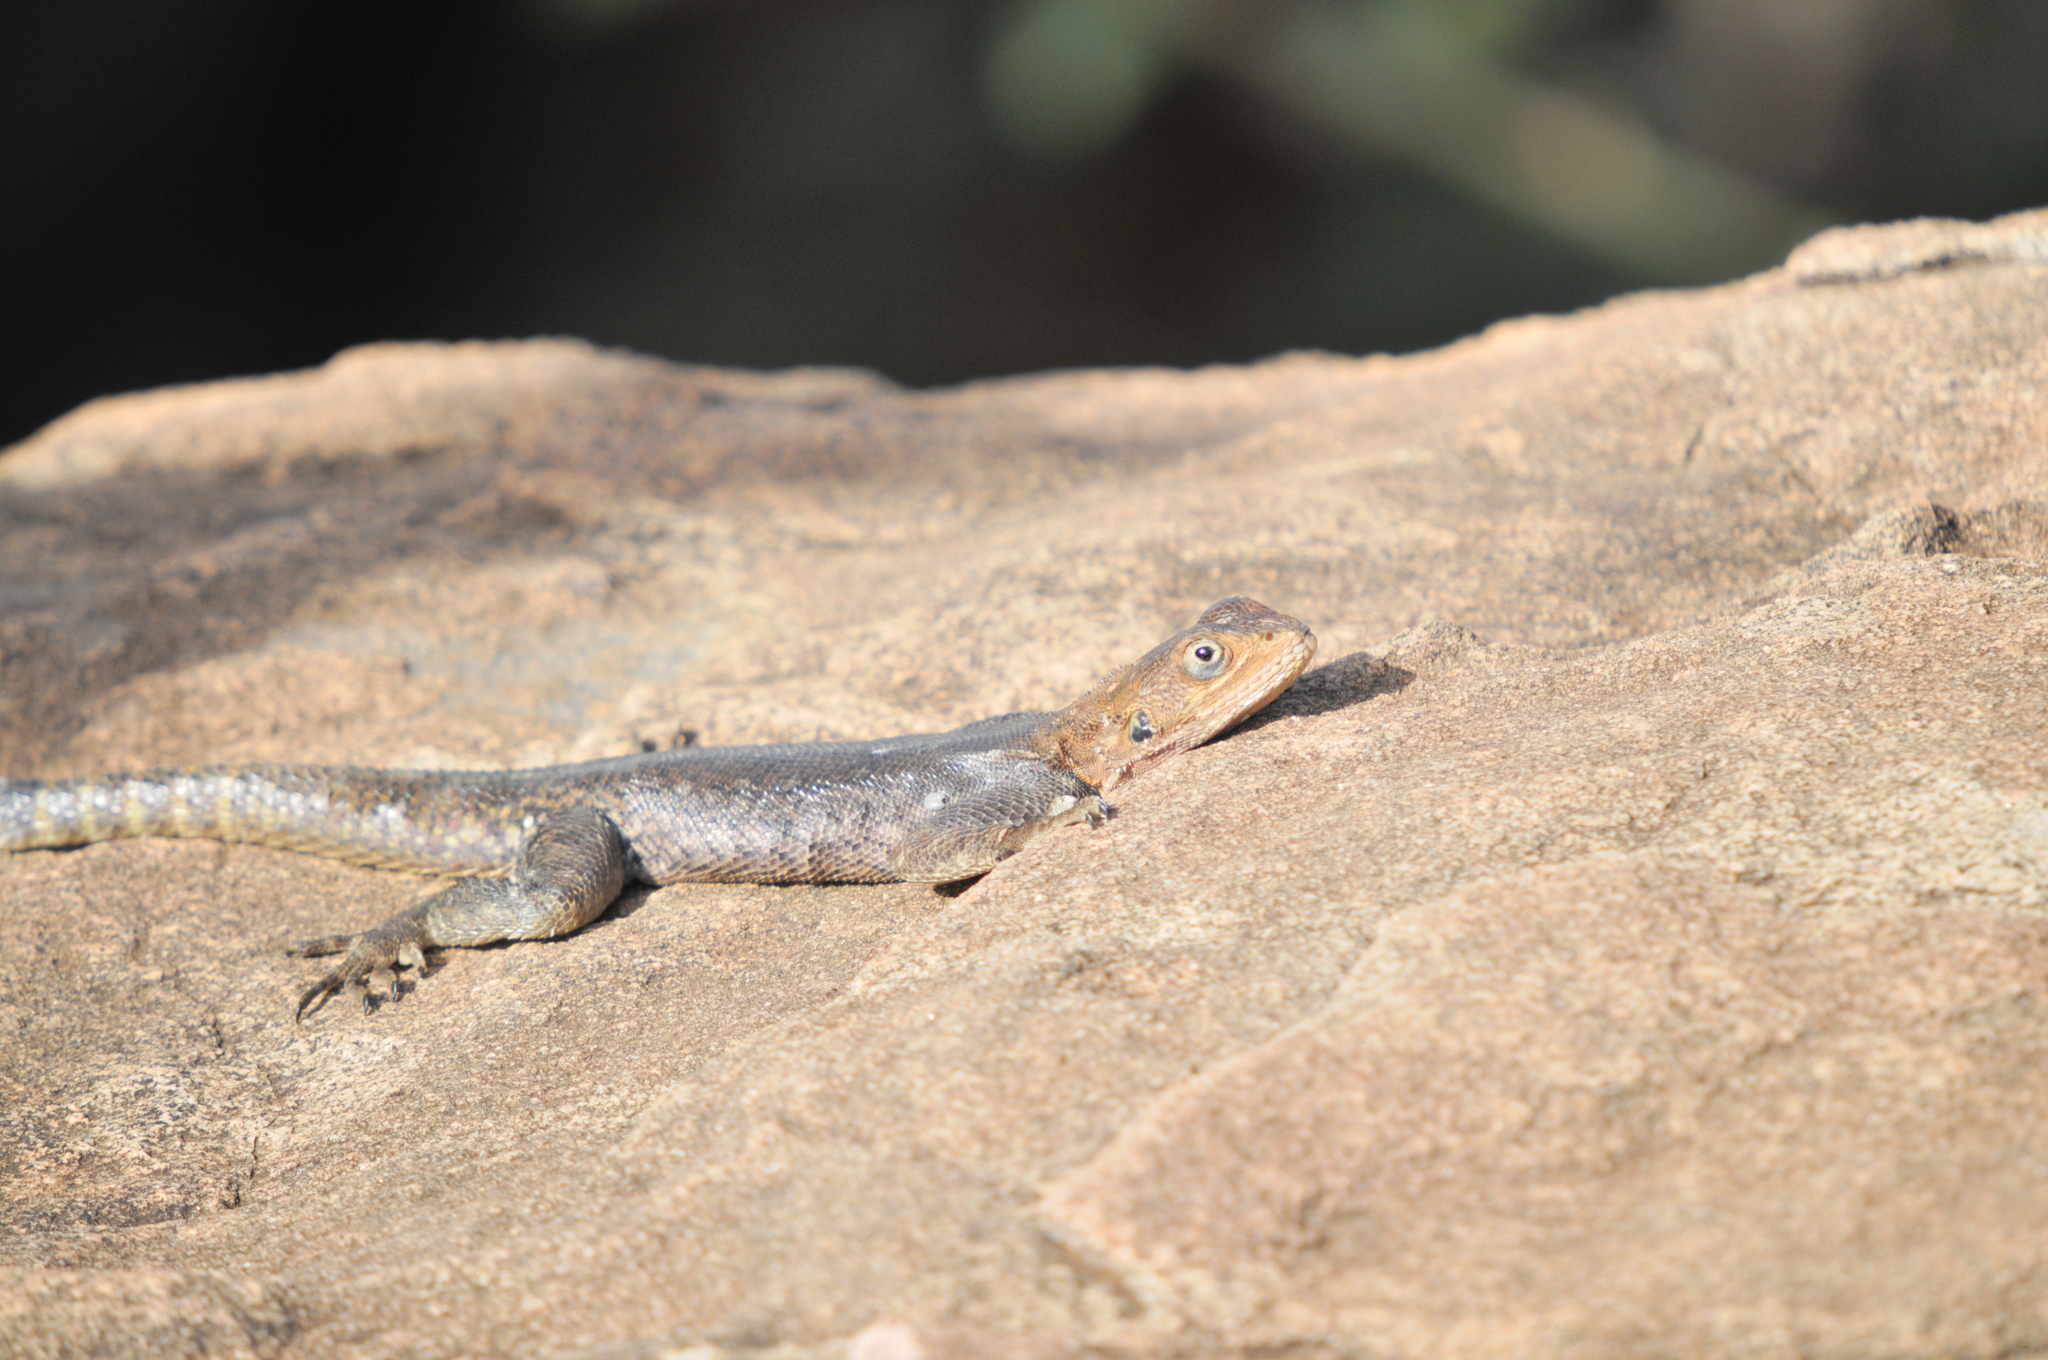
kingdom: Animalia
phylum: Chordata
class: Squamata
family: Agamidae
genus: Agama
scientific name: Agama lionotus
